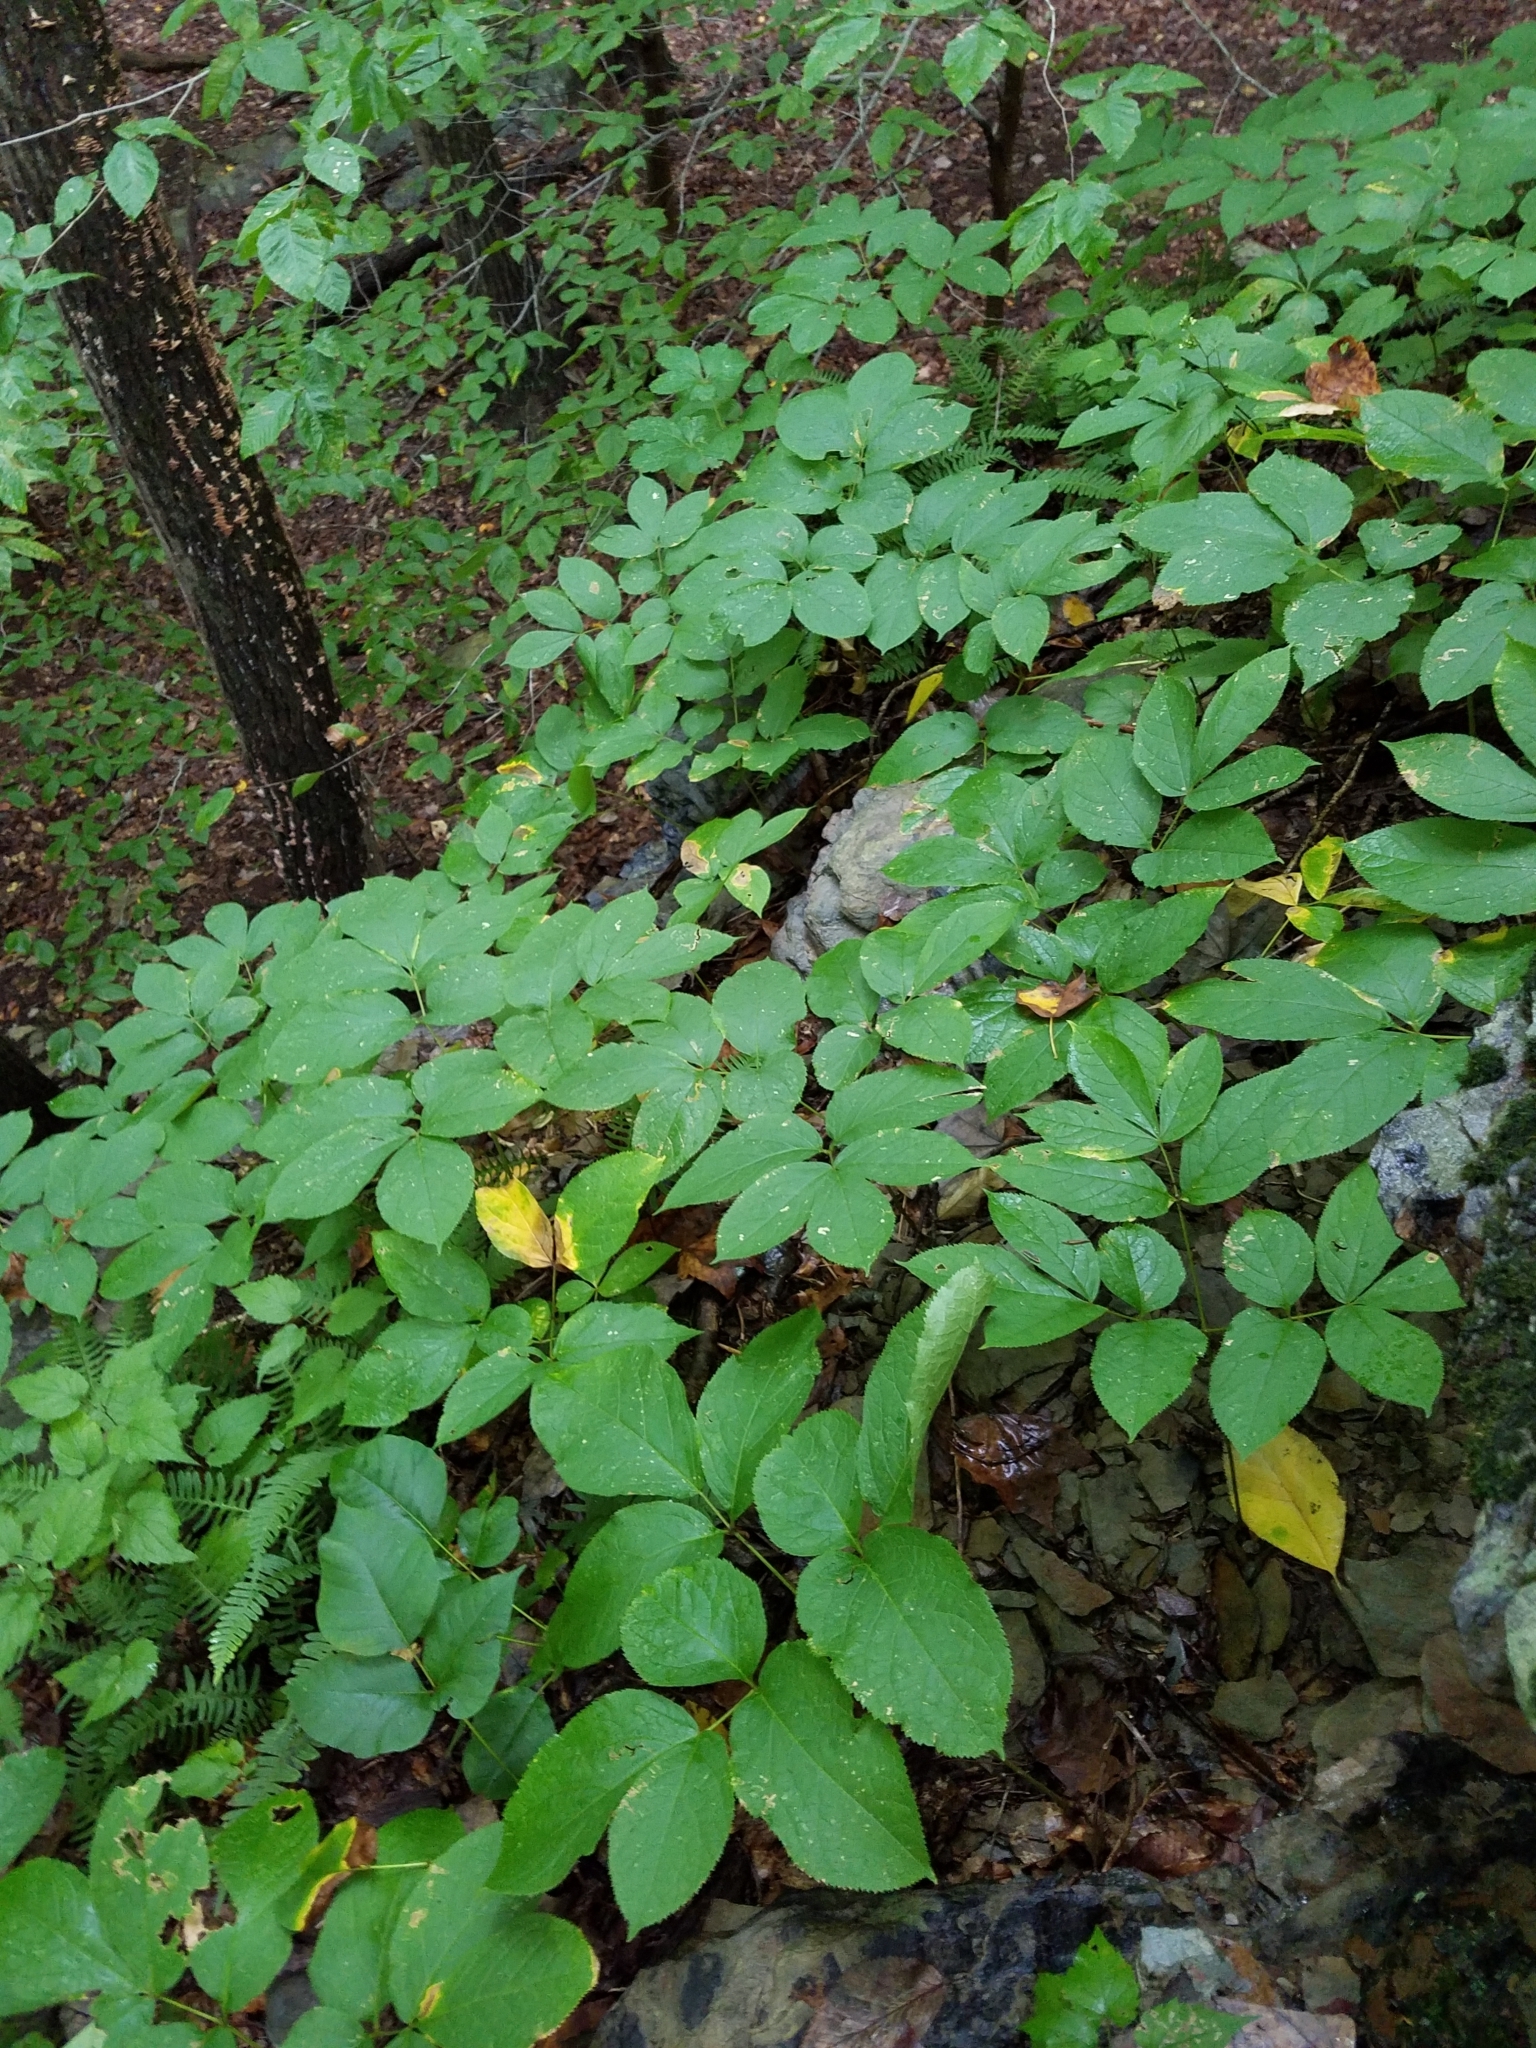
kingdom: Plantae
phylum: Tracheophyta
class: Magnoliopsida
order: Apiales
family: Araliaceae
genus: Aralia
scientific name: Aralia nudicaulis
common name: Wild sarsaparilla
